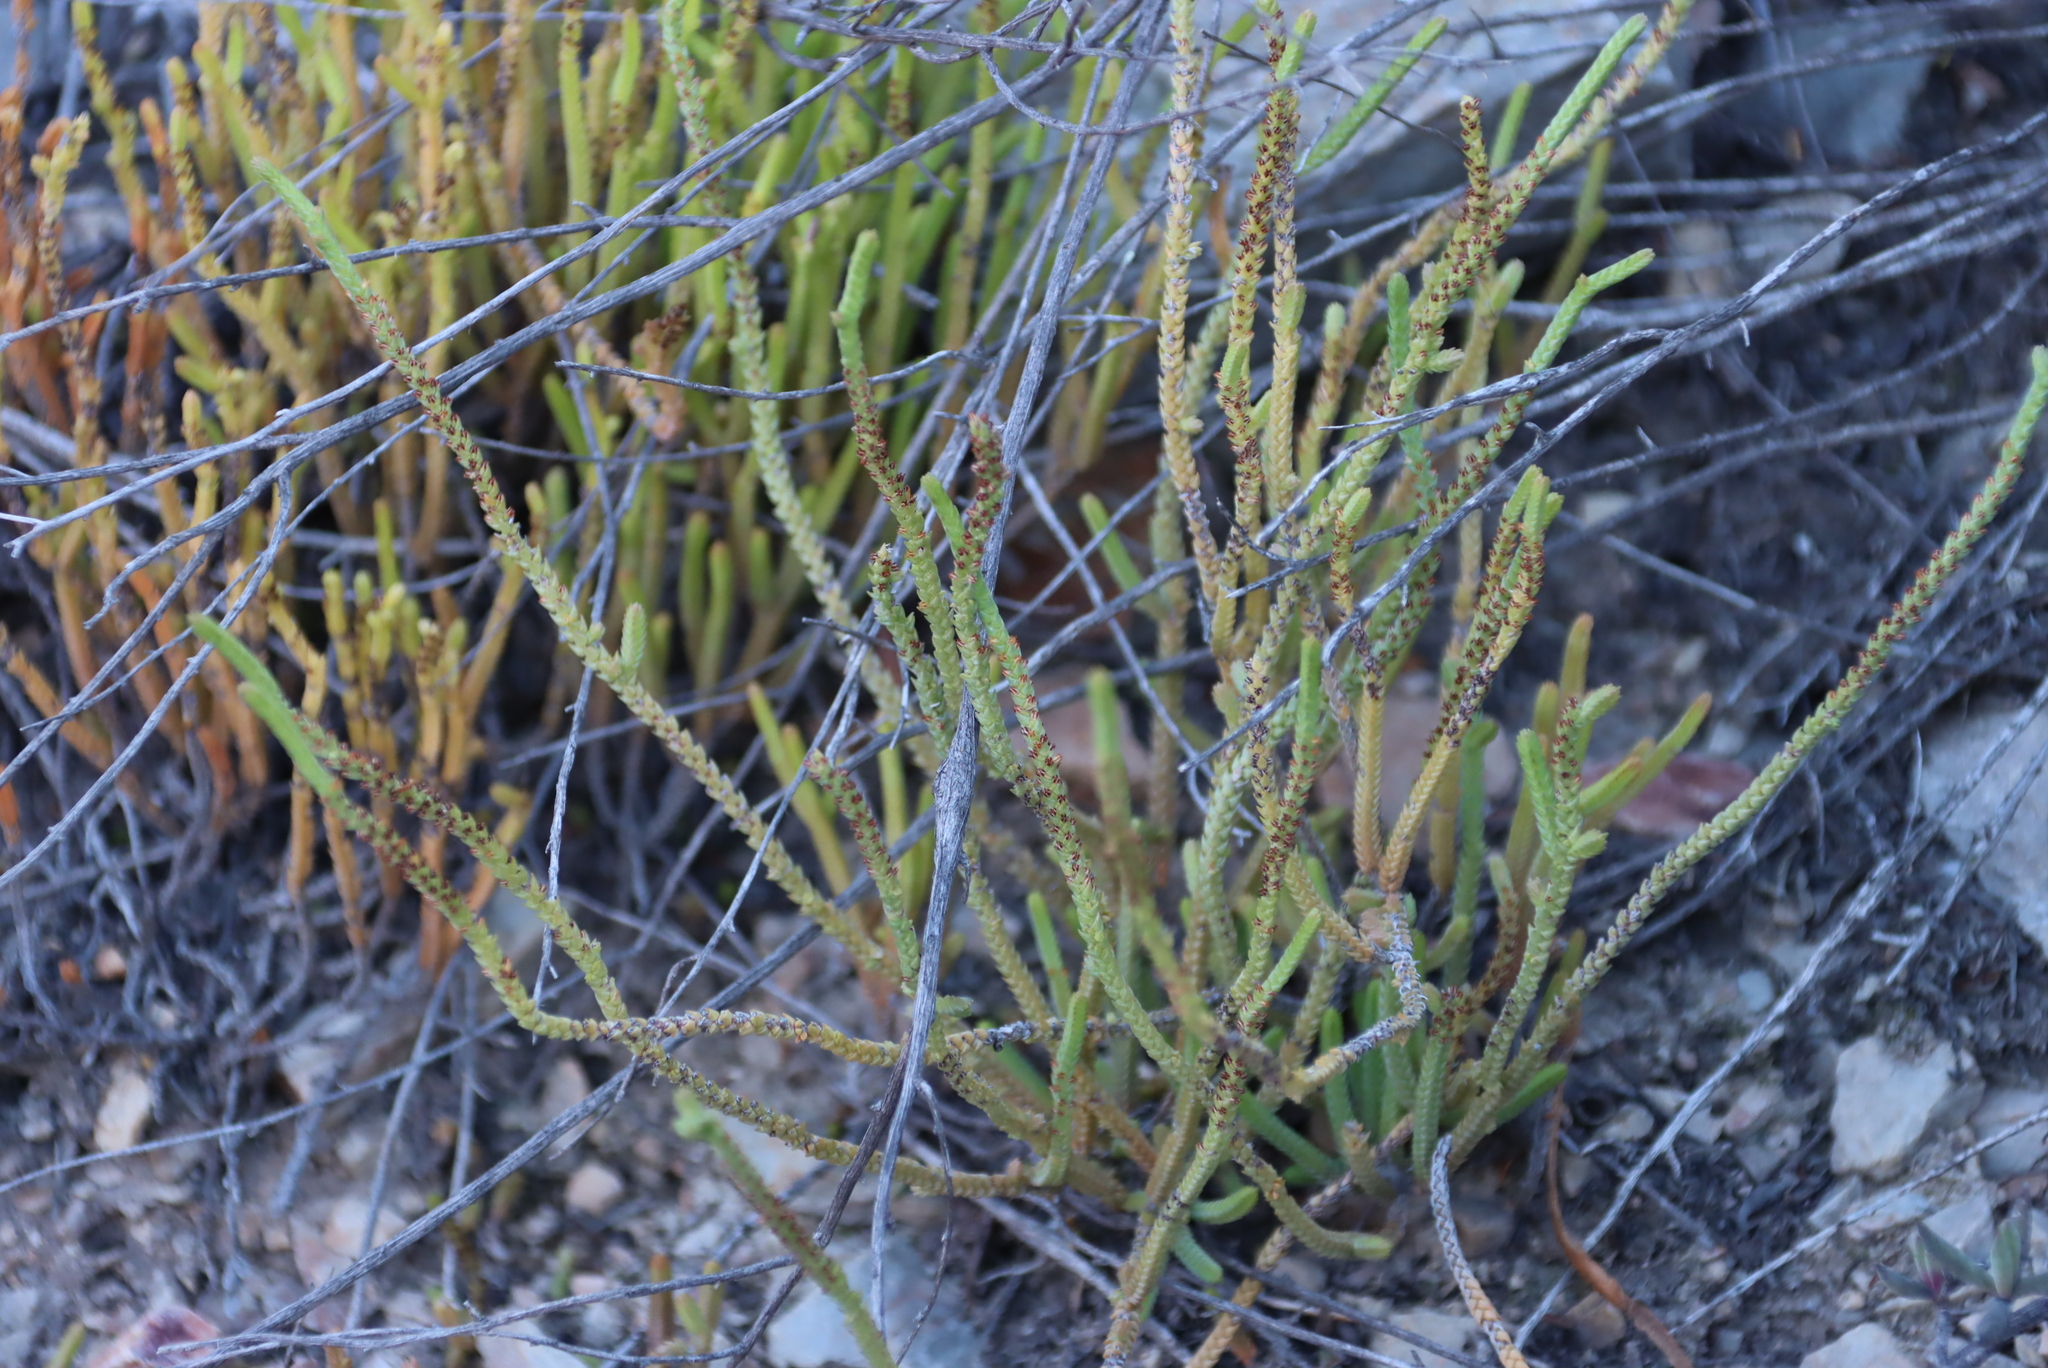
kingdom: Plantae
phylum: Tracheophyta
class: Magnoliopsida
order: Saxifragales
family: Crassulaceae
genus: Crassula
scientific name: Crassula muscosa
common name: Toy-cypress
